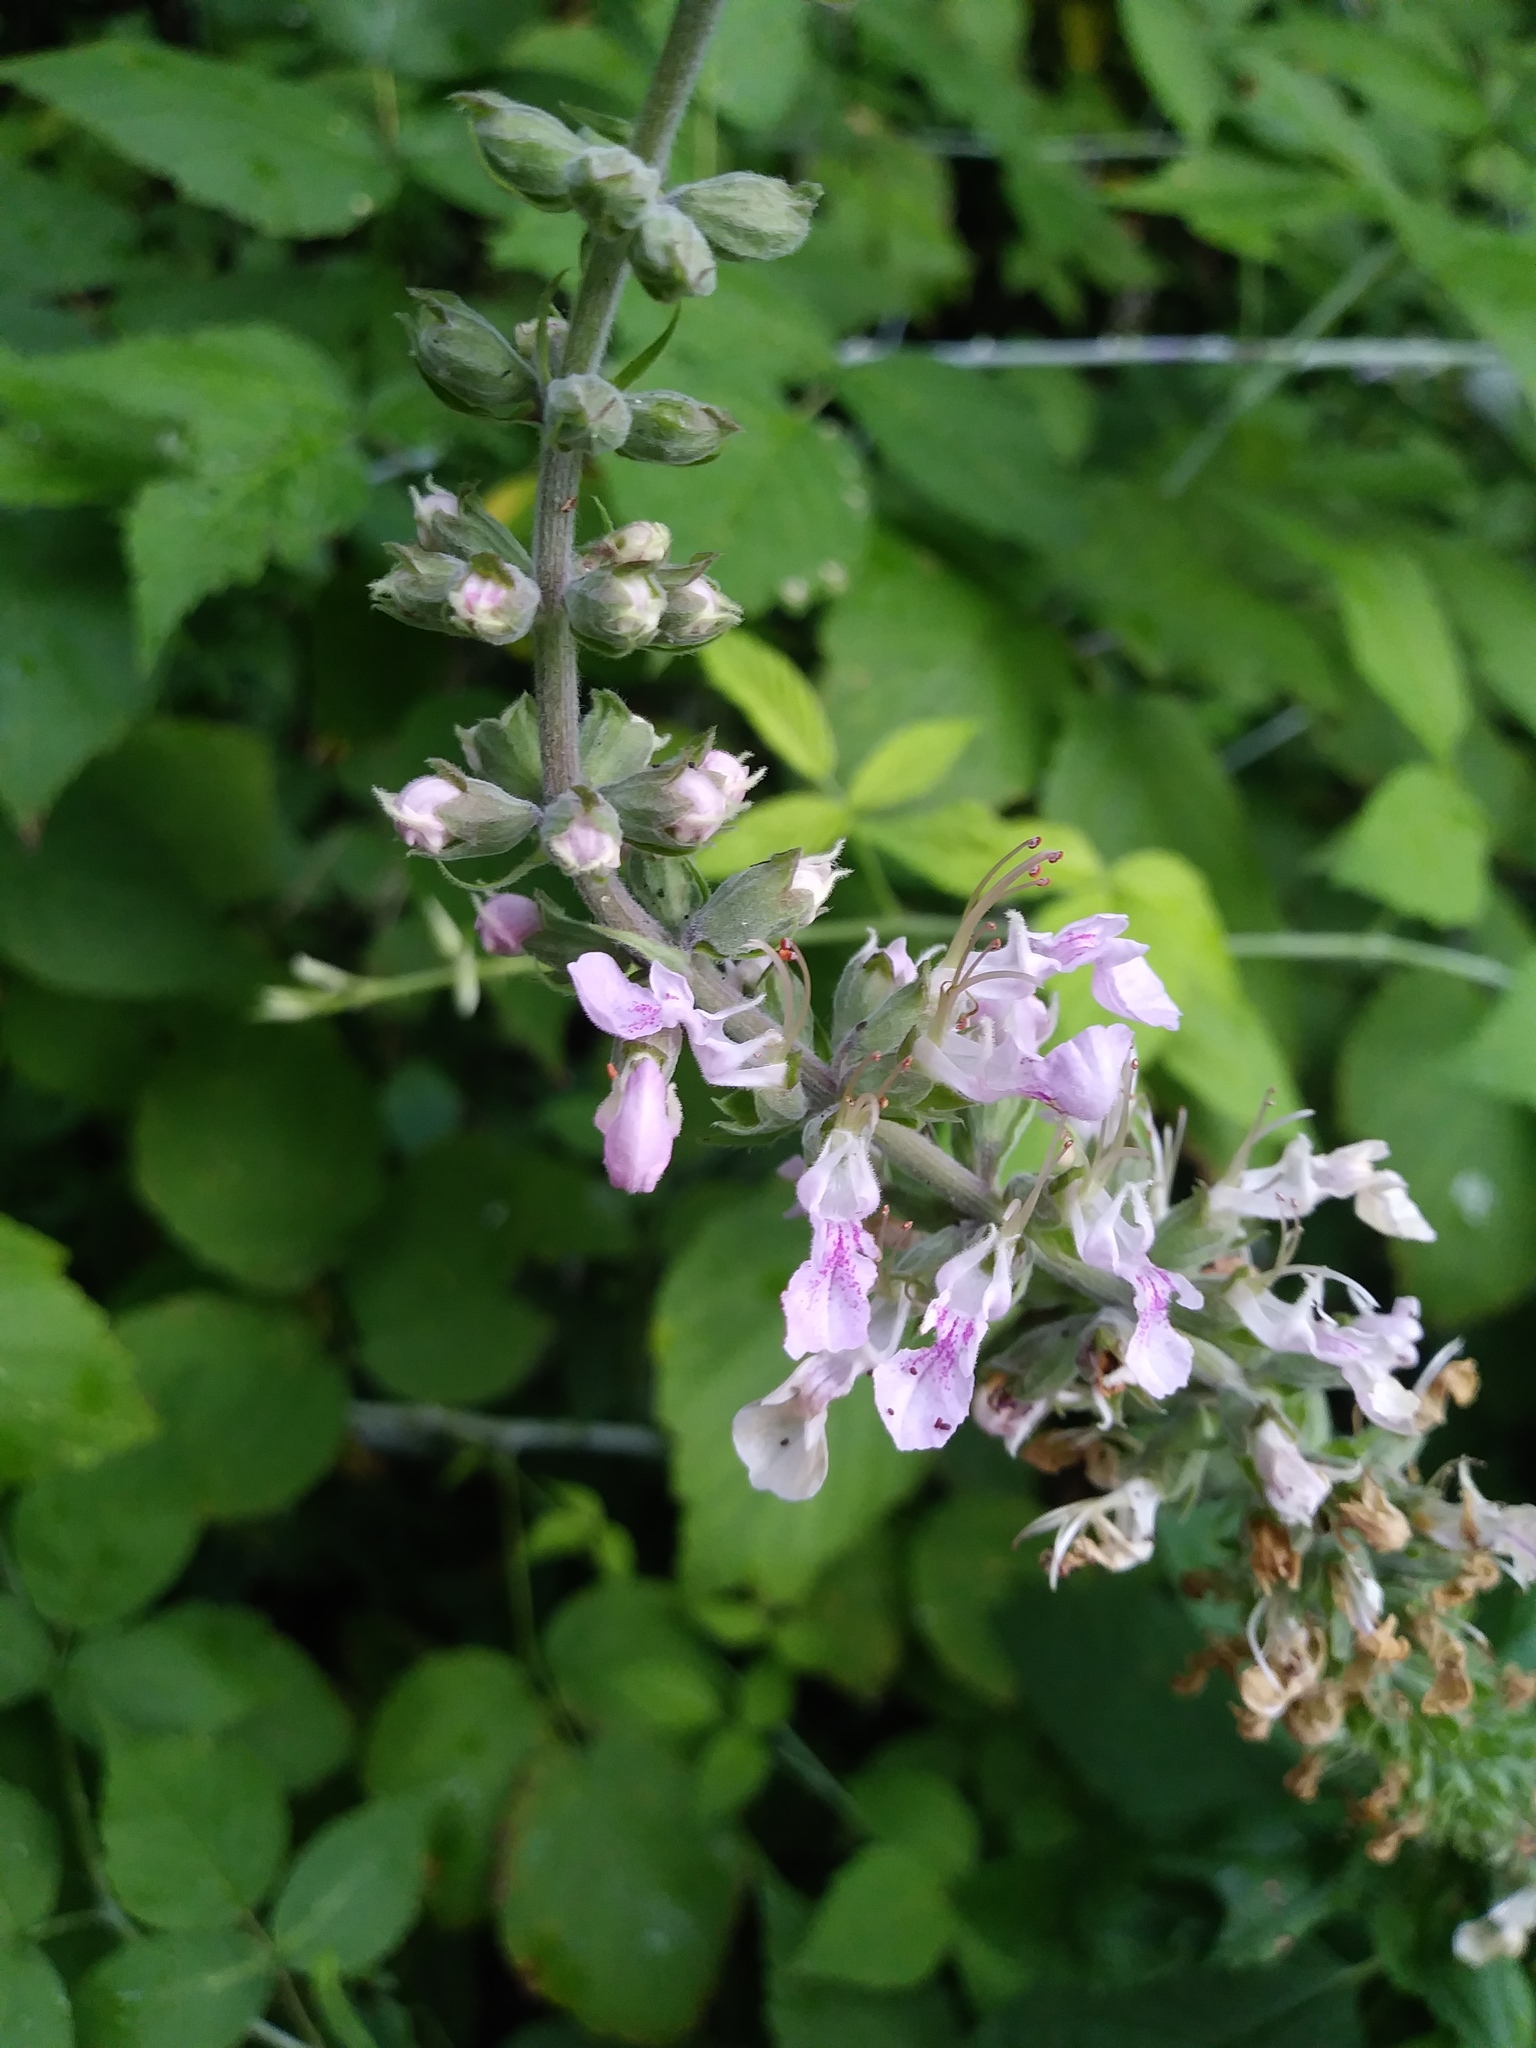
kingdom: Plantae
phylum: Tracheophyta
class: Magnoliopsida
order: Lamiales
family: Lamiaceae
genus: Teucrium
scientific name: Teucrium canadense
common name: American germander
